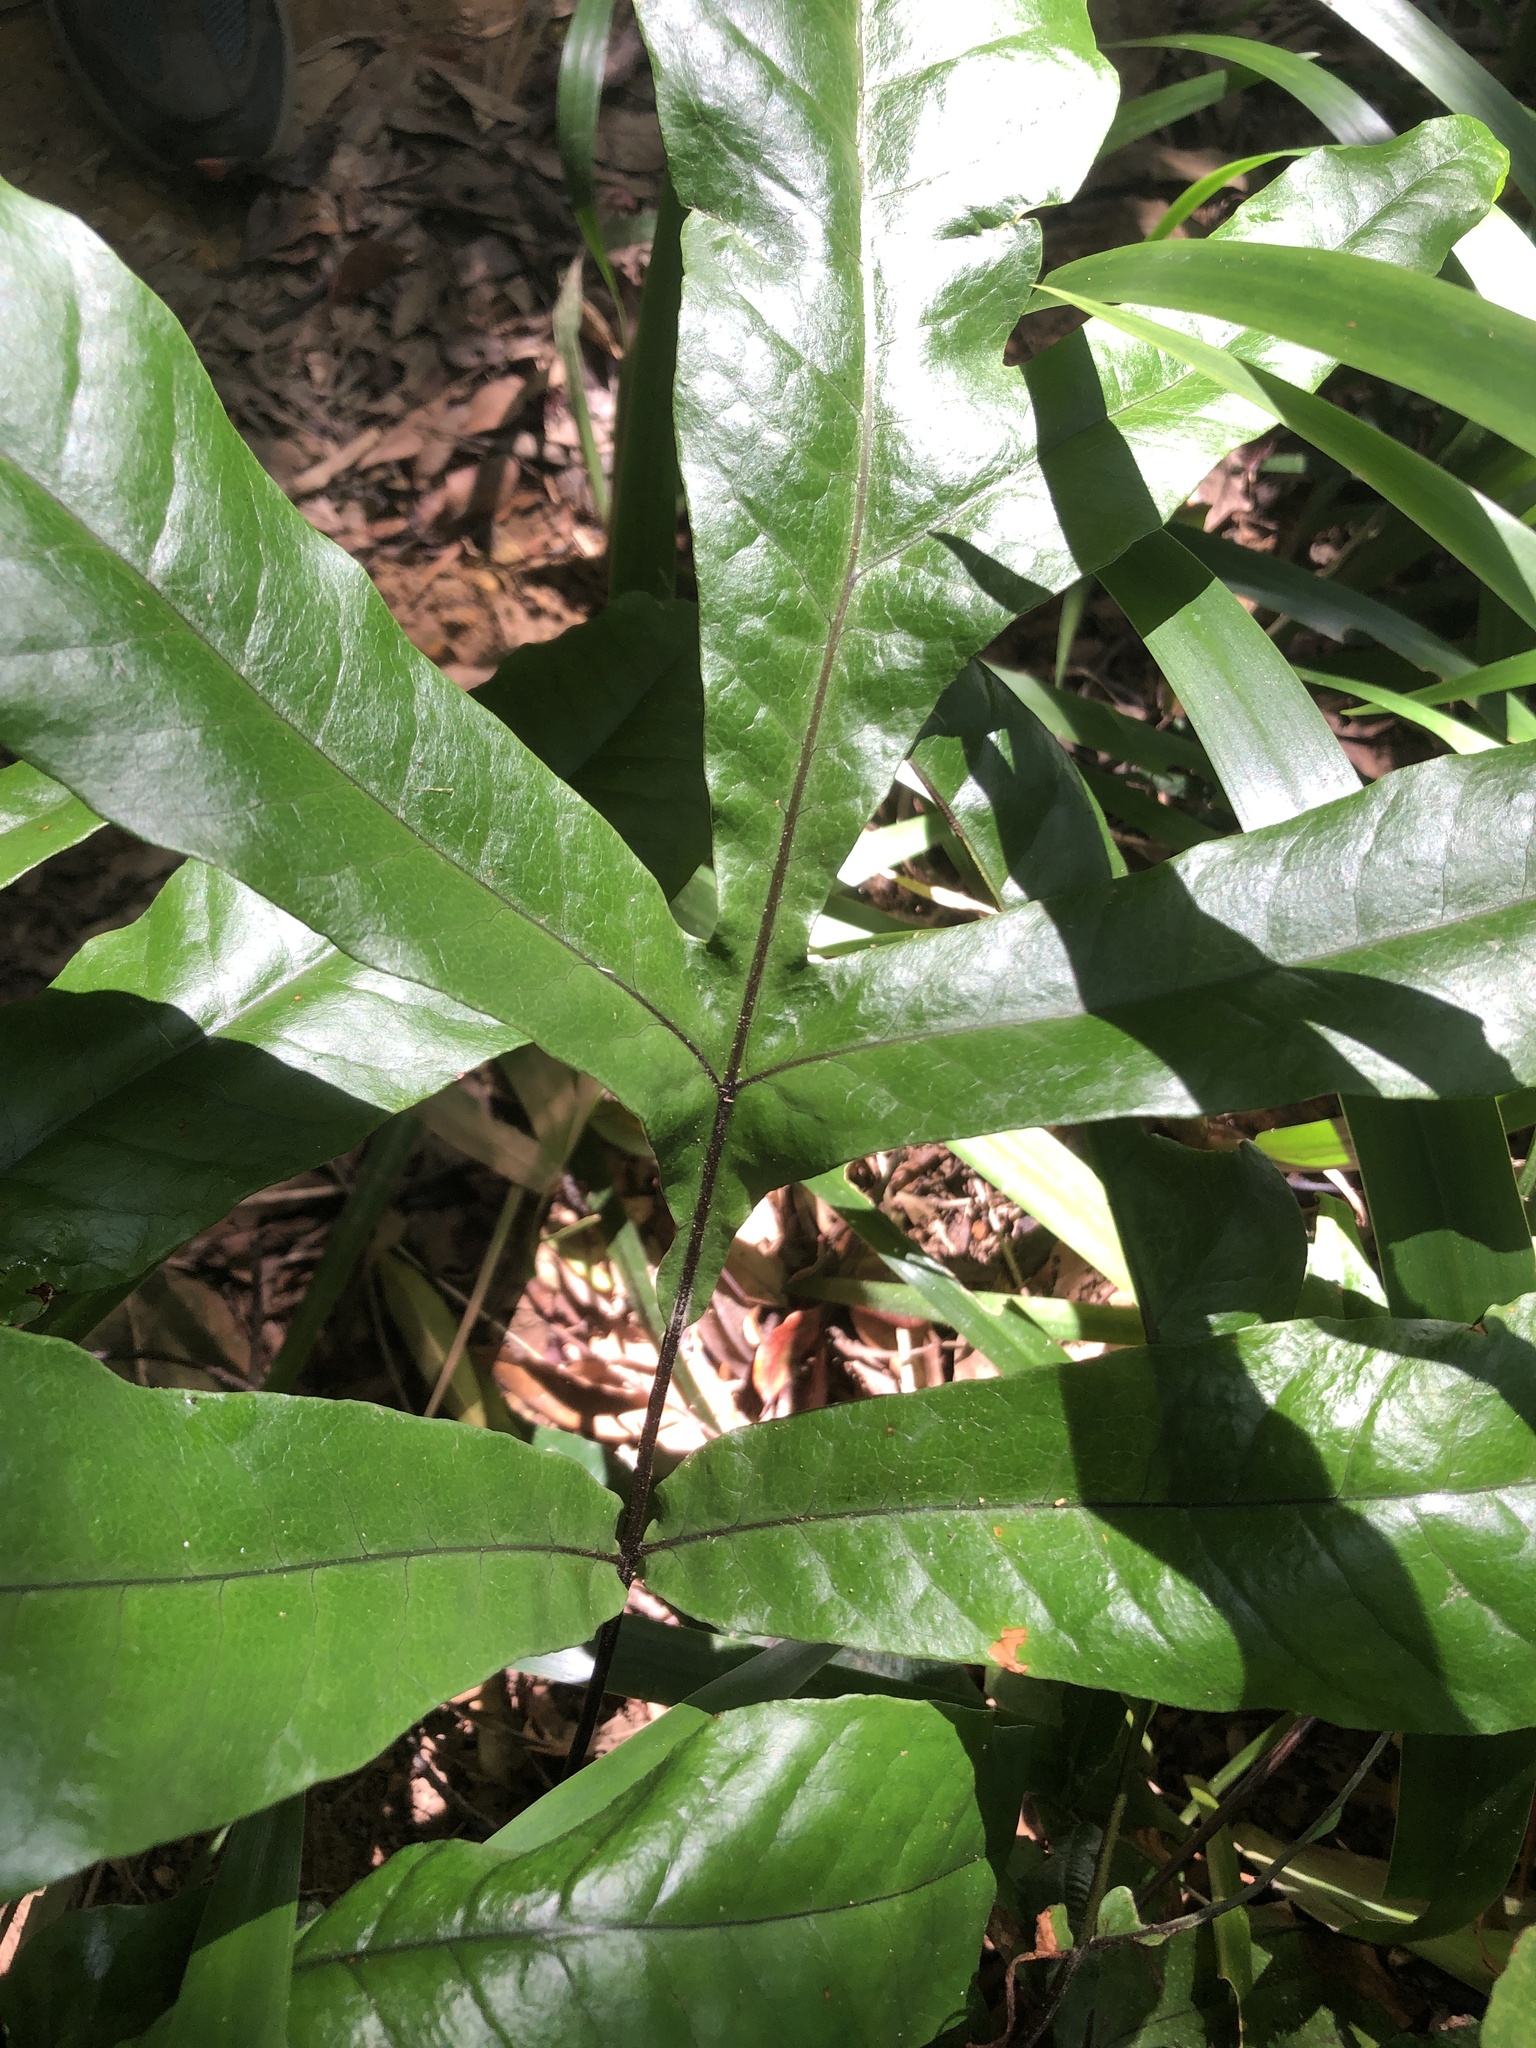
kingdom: Plantae
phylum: Tracheophyta
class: Polypodiopsida
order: Polypodiales
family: Tectariaceae
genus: Tectaria
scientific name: Tectaria harlandii
